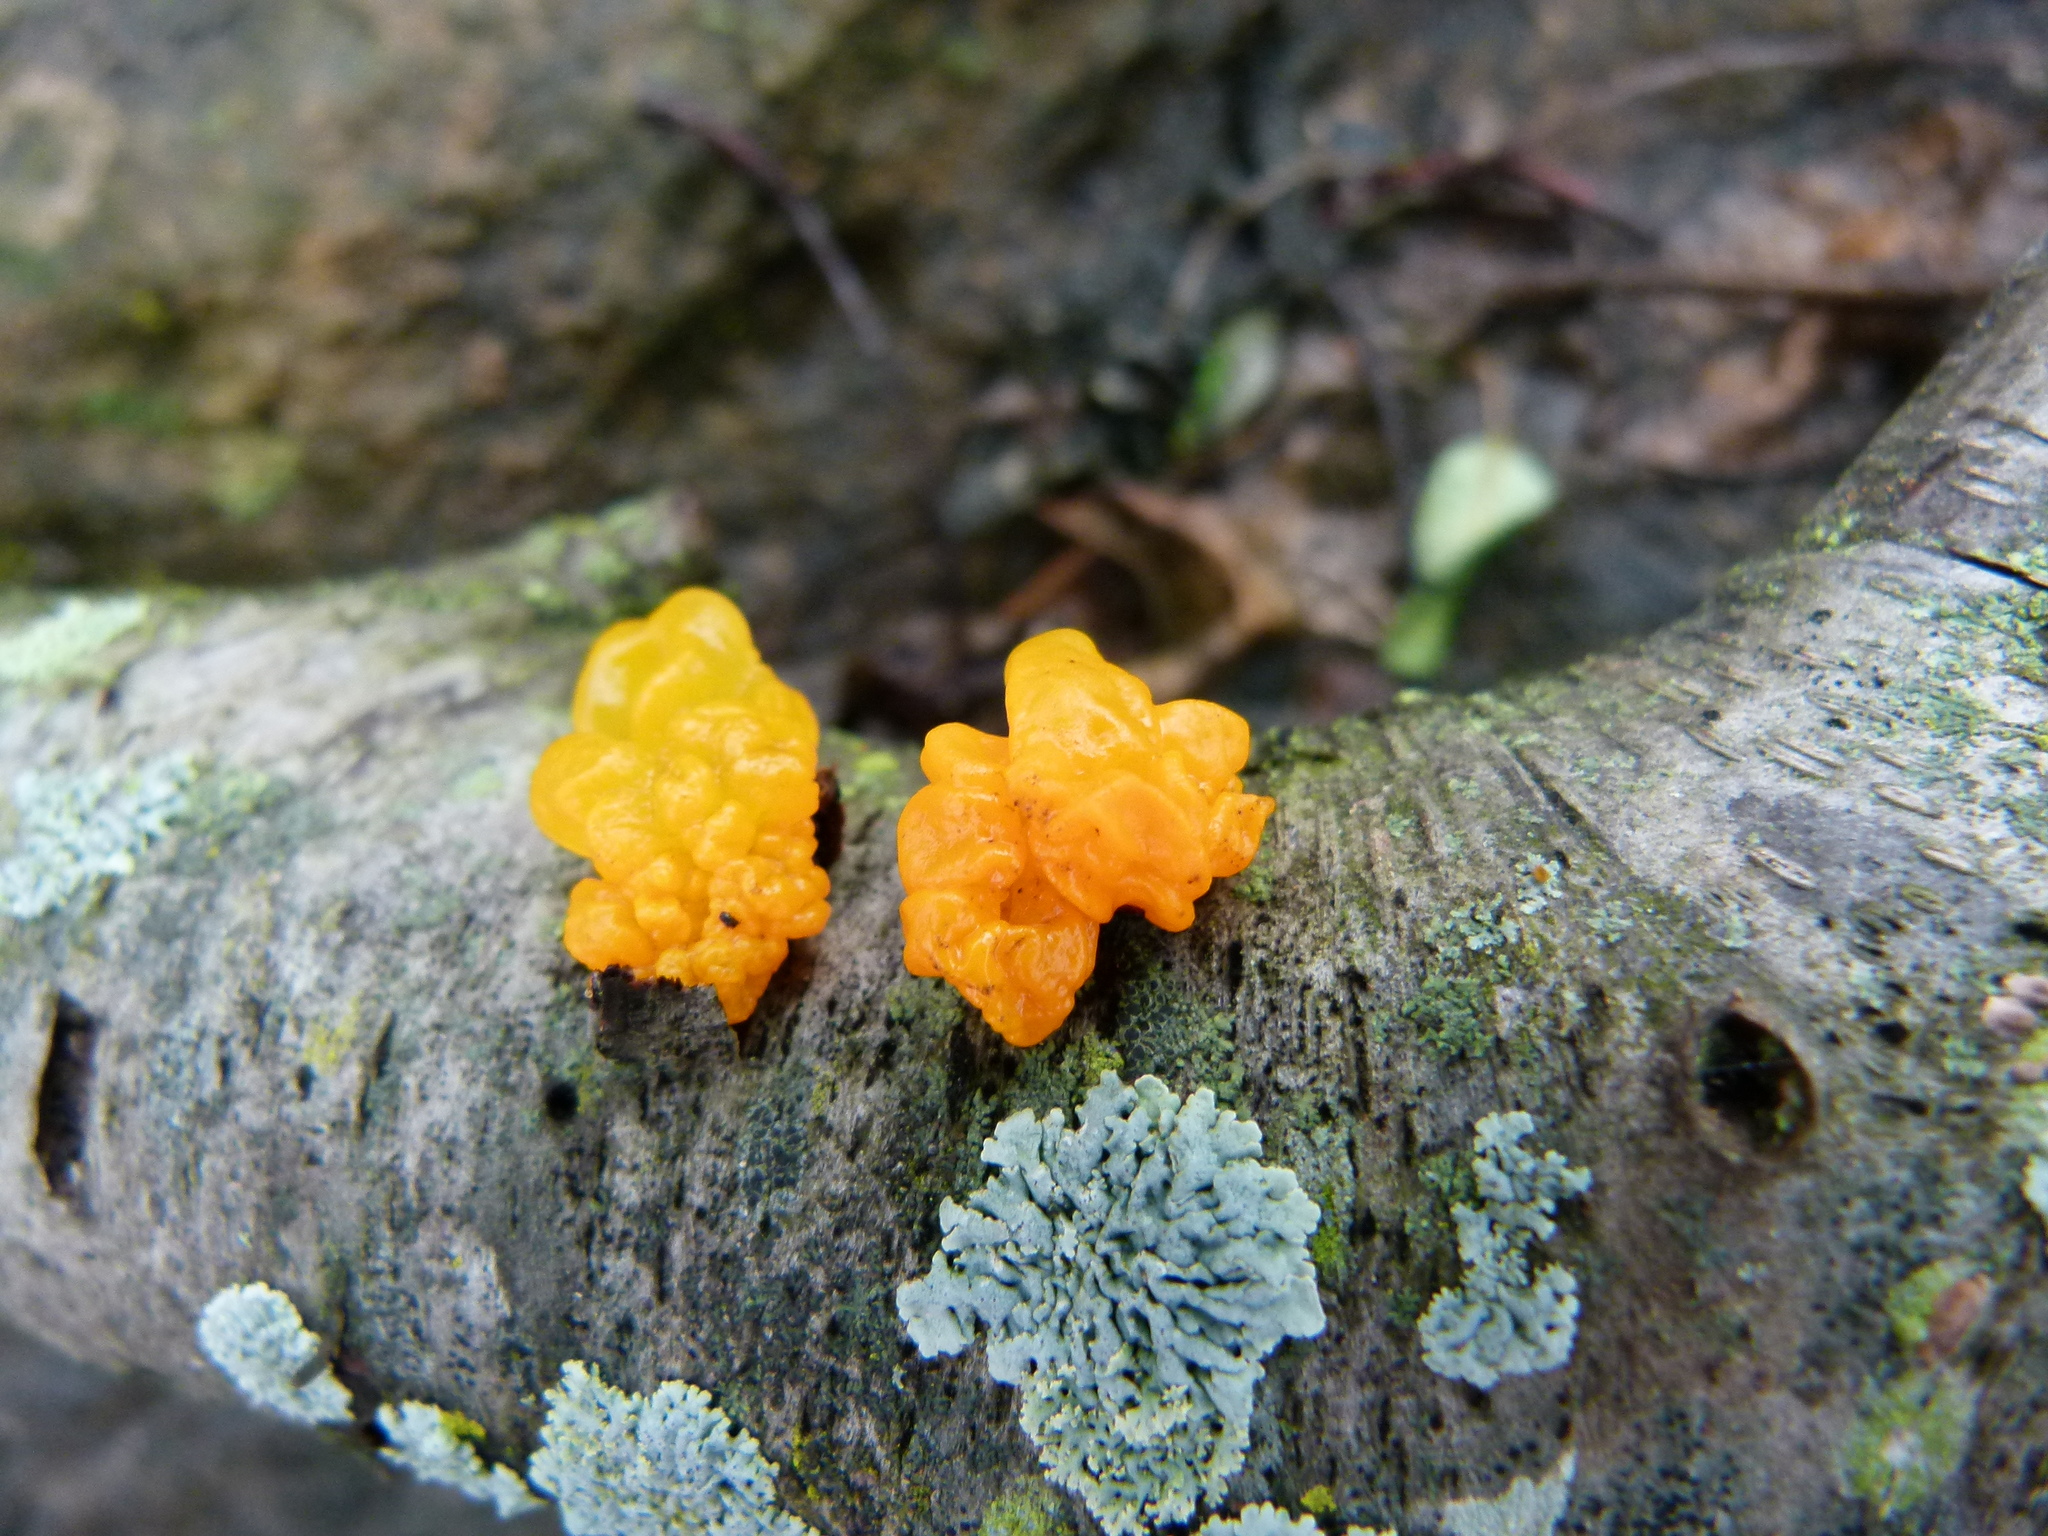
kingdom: Fungi
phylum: Basidiomycota
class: Tremellomycetes
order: Tremellales
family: Tremellaceae
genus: Tremella
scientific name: Tremella mesenterica
